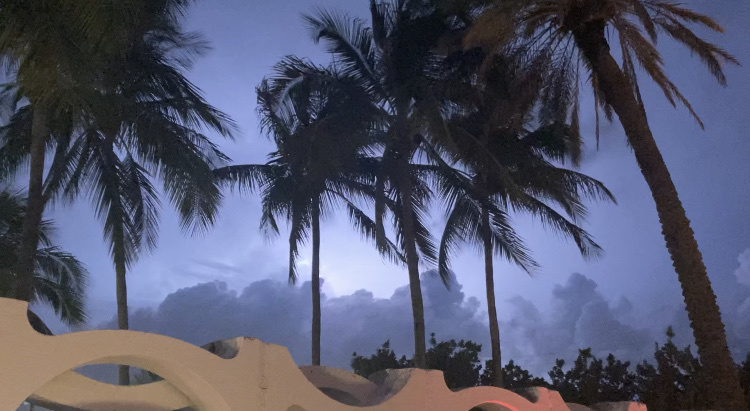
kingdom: Plantae
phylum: Tracheophyta
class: Liliopsida
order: Arecales
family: Arecaceae
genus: Cocos
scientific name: Cocos nucifera
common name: Coconut palm
